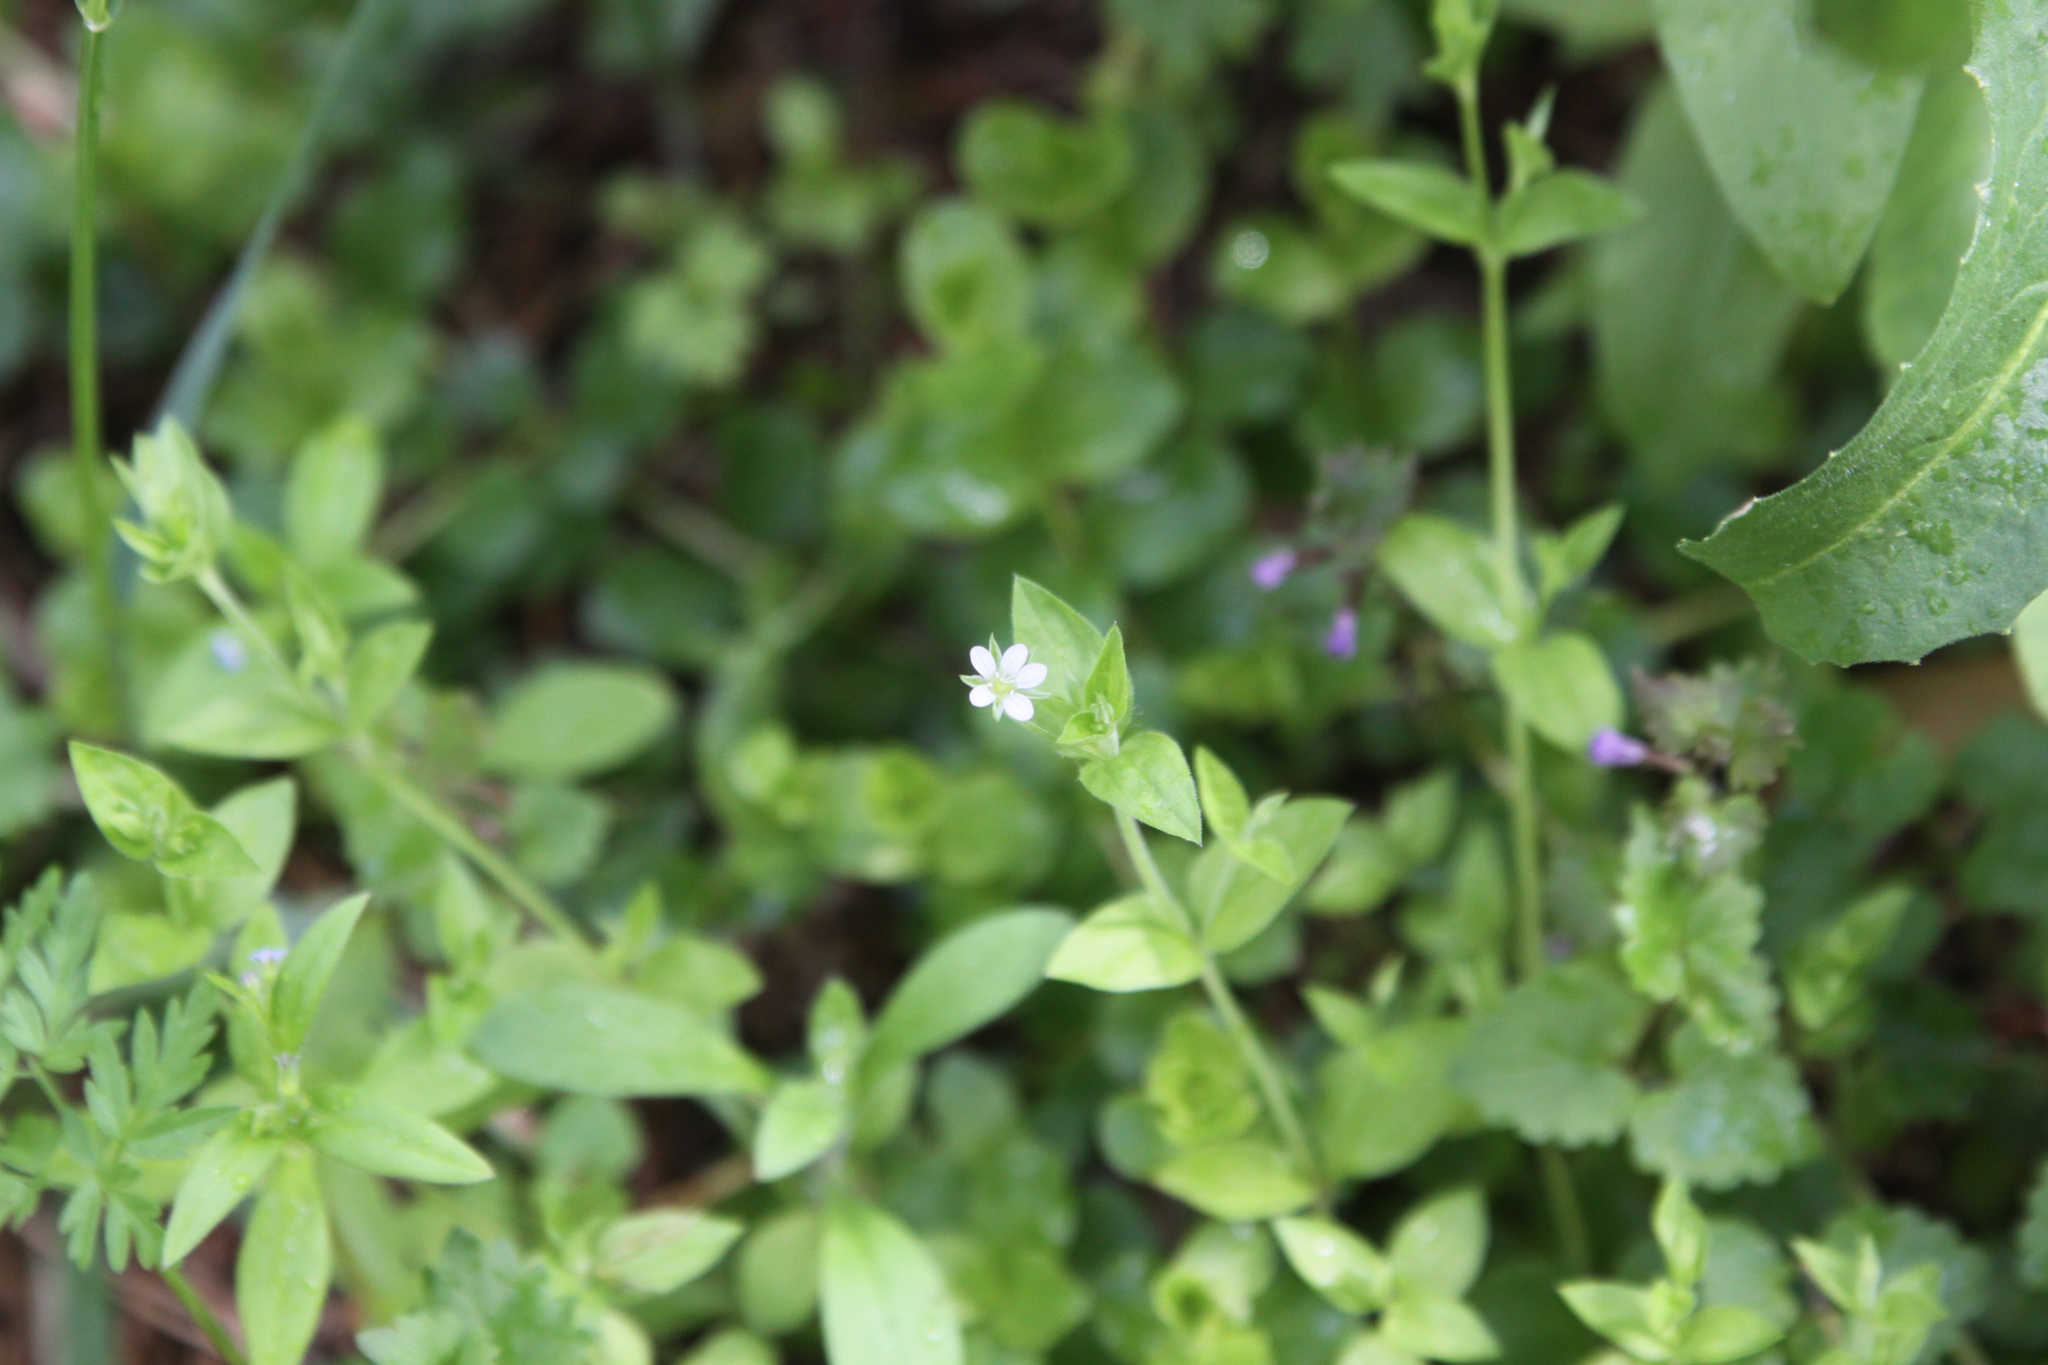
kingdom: Plantae
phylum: Tracheophyta
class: Magnoliopsida
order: Caryophyllales
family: Caryophyllaceae
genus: Moehringia
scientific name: Moehringia trinervia
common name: Three-nerved sandwort
